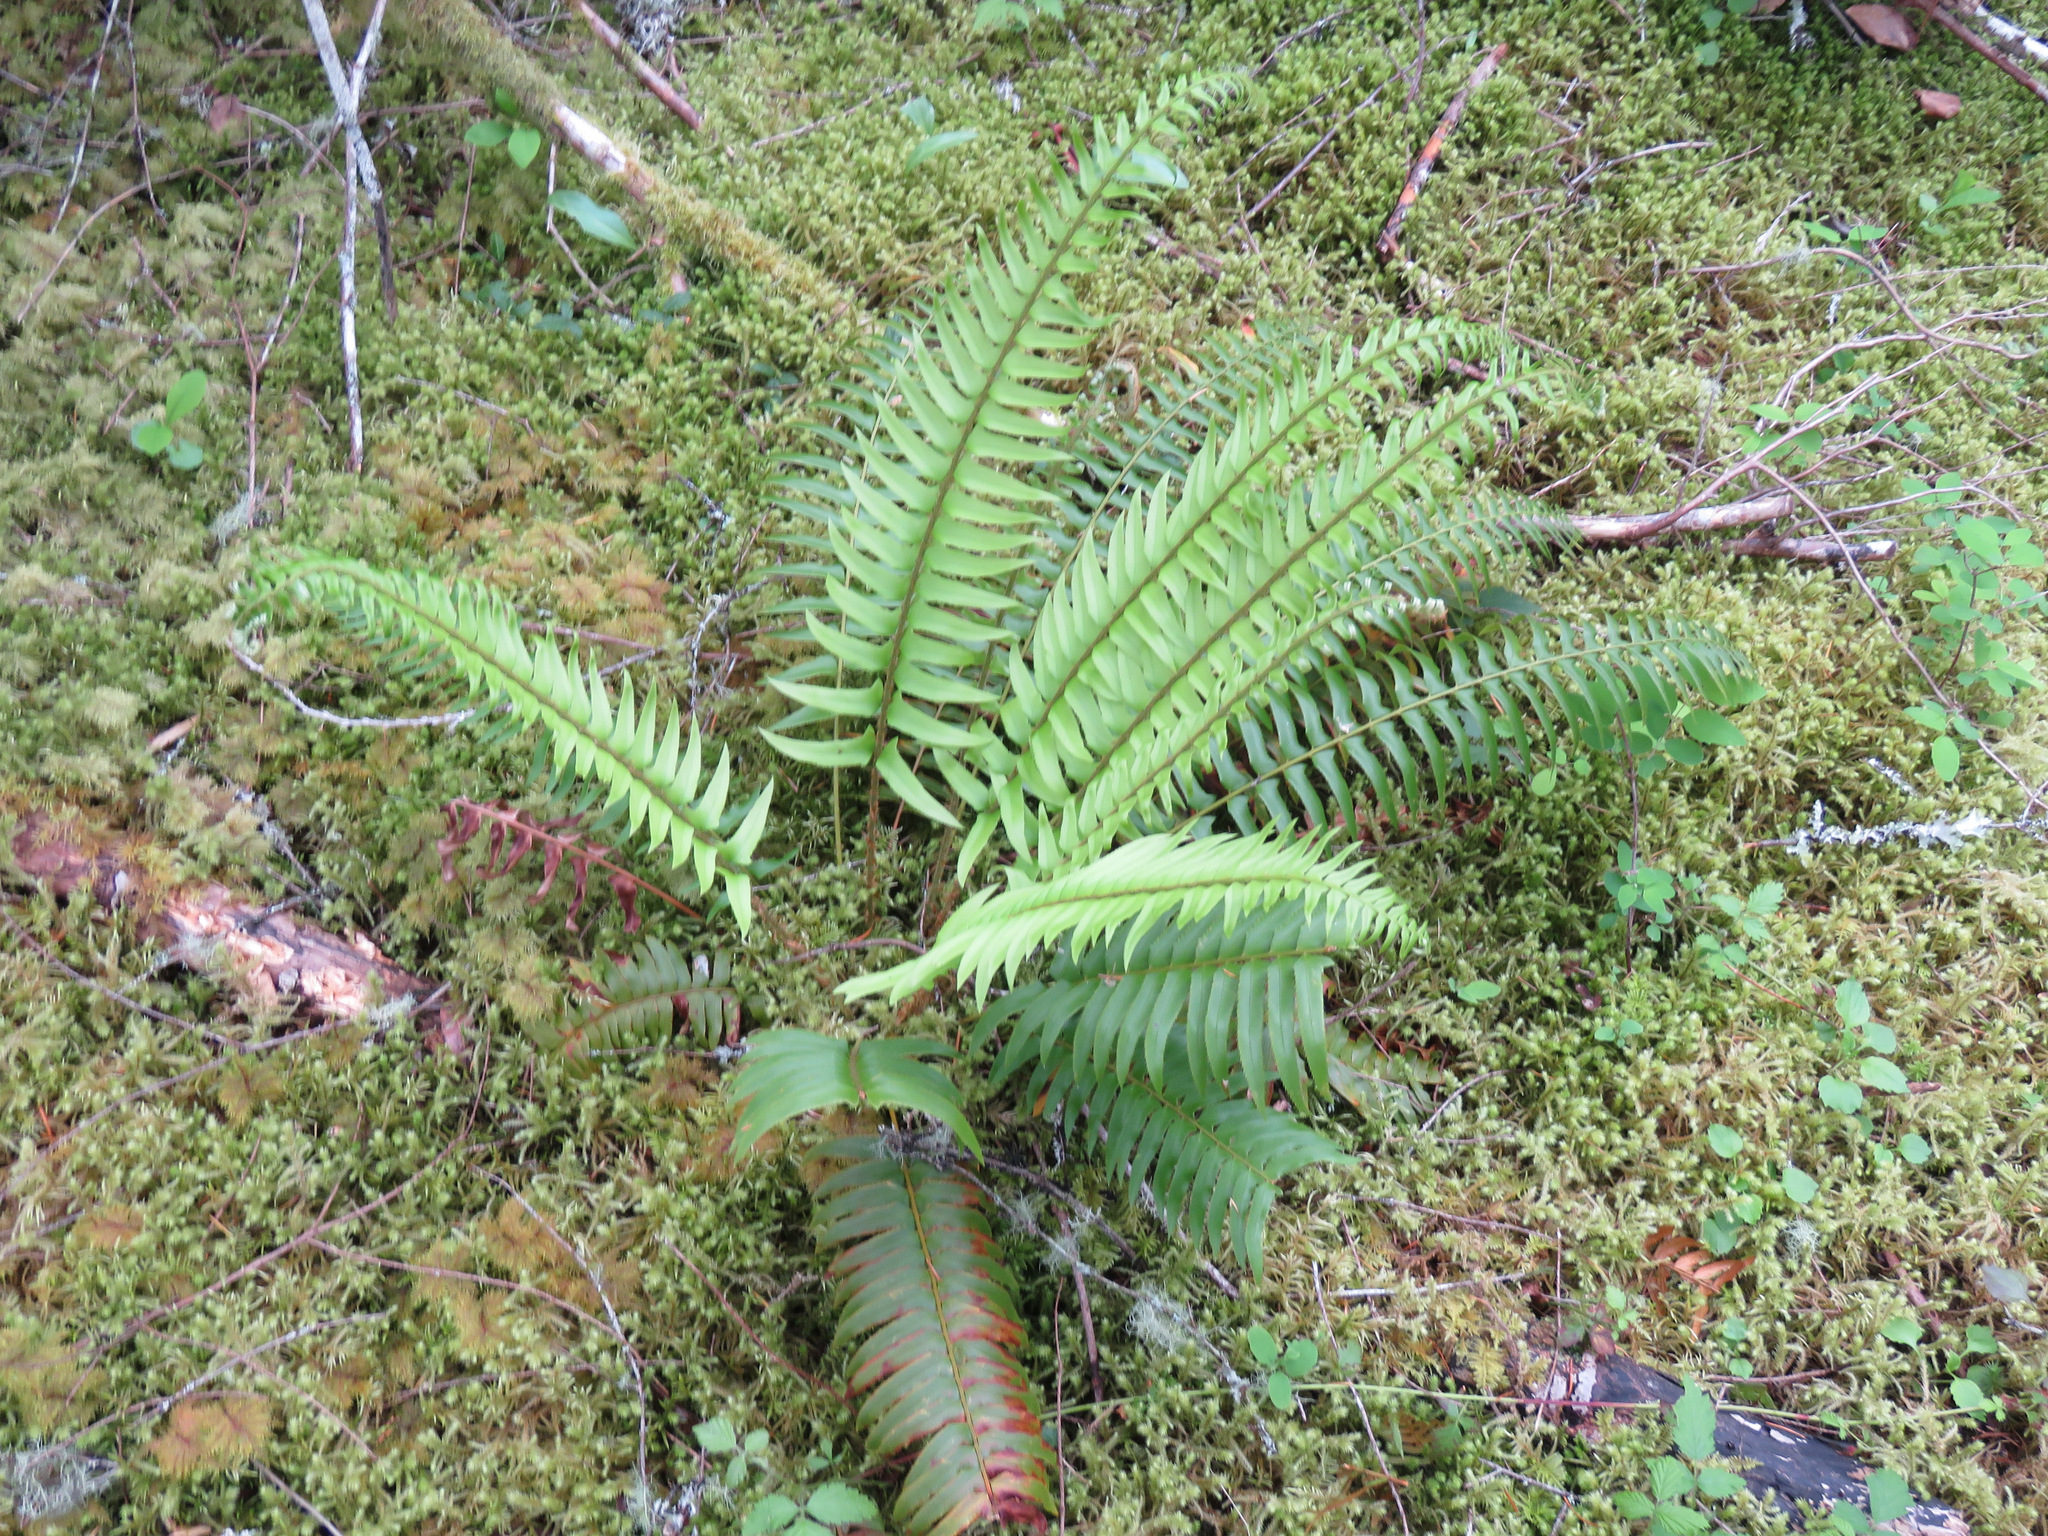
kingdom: Plantae
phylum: Tracheophyta
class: Polypodiopsida
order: Polypodiales
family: Dryopteridaceae
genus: Polystichum
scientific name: Polystichum munitum
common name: Western sword-fern
